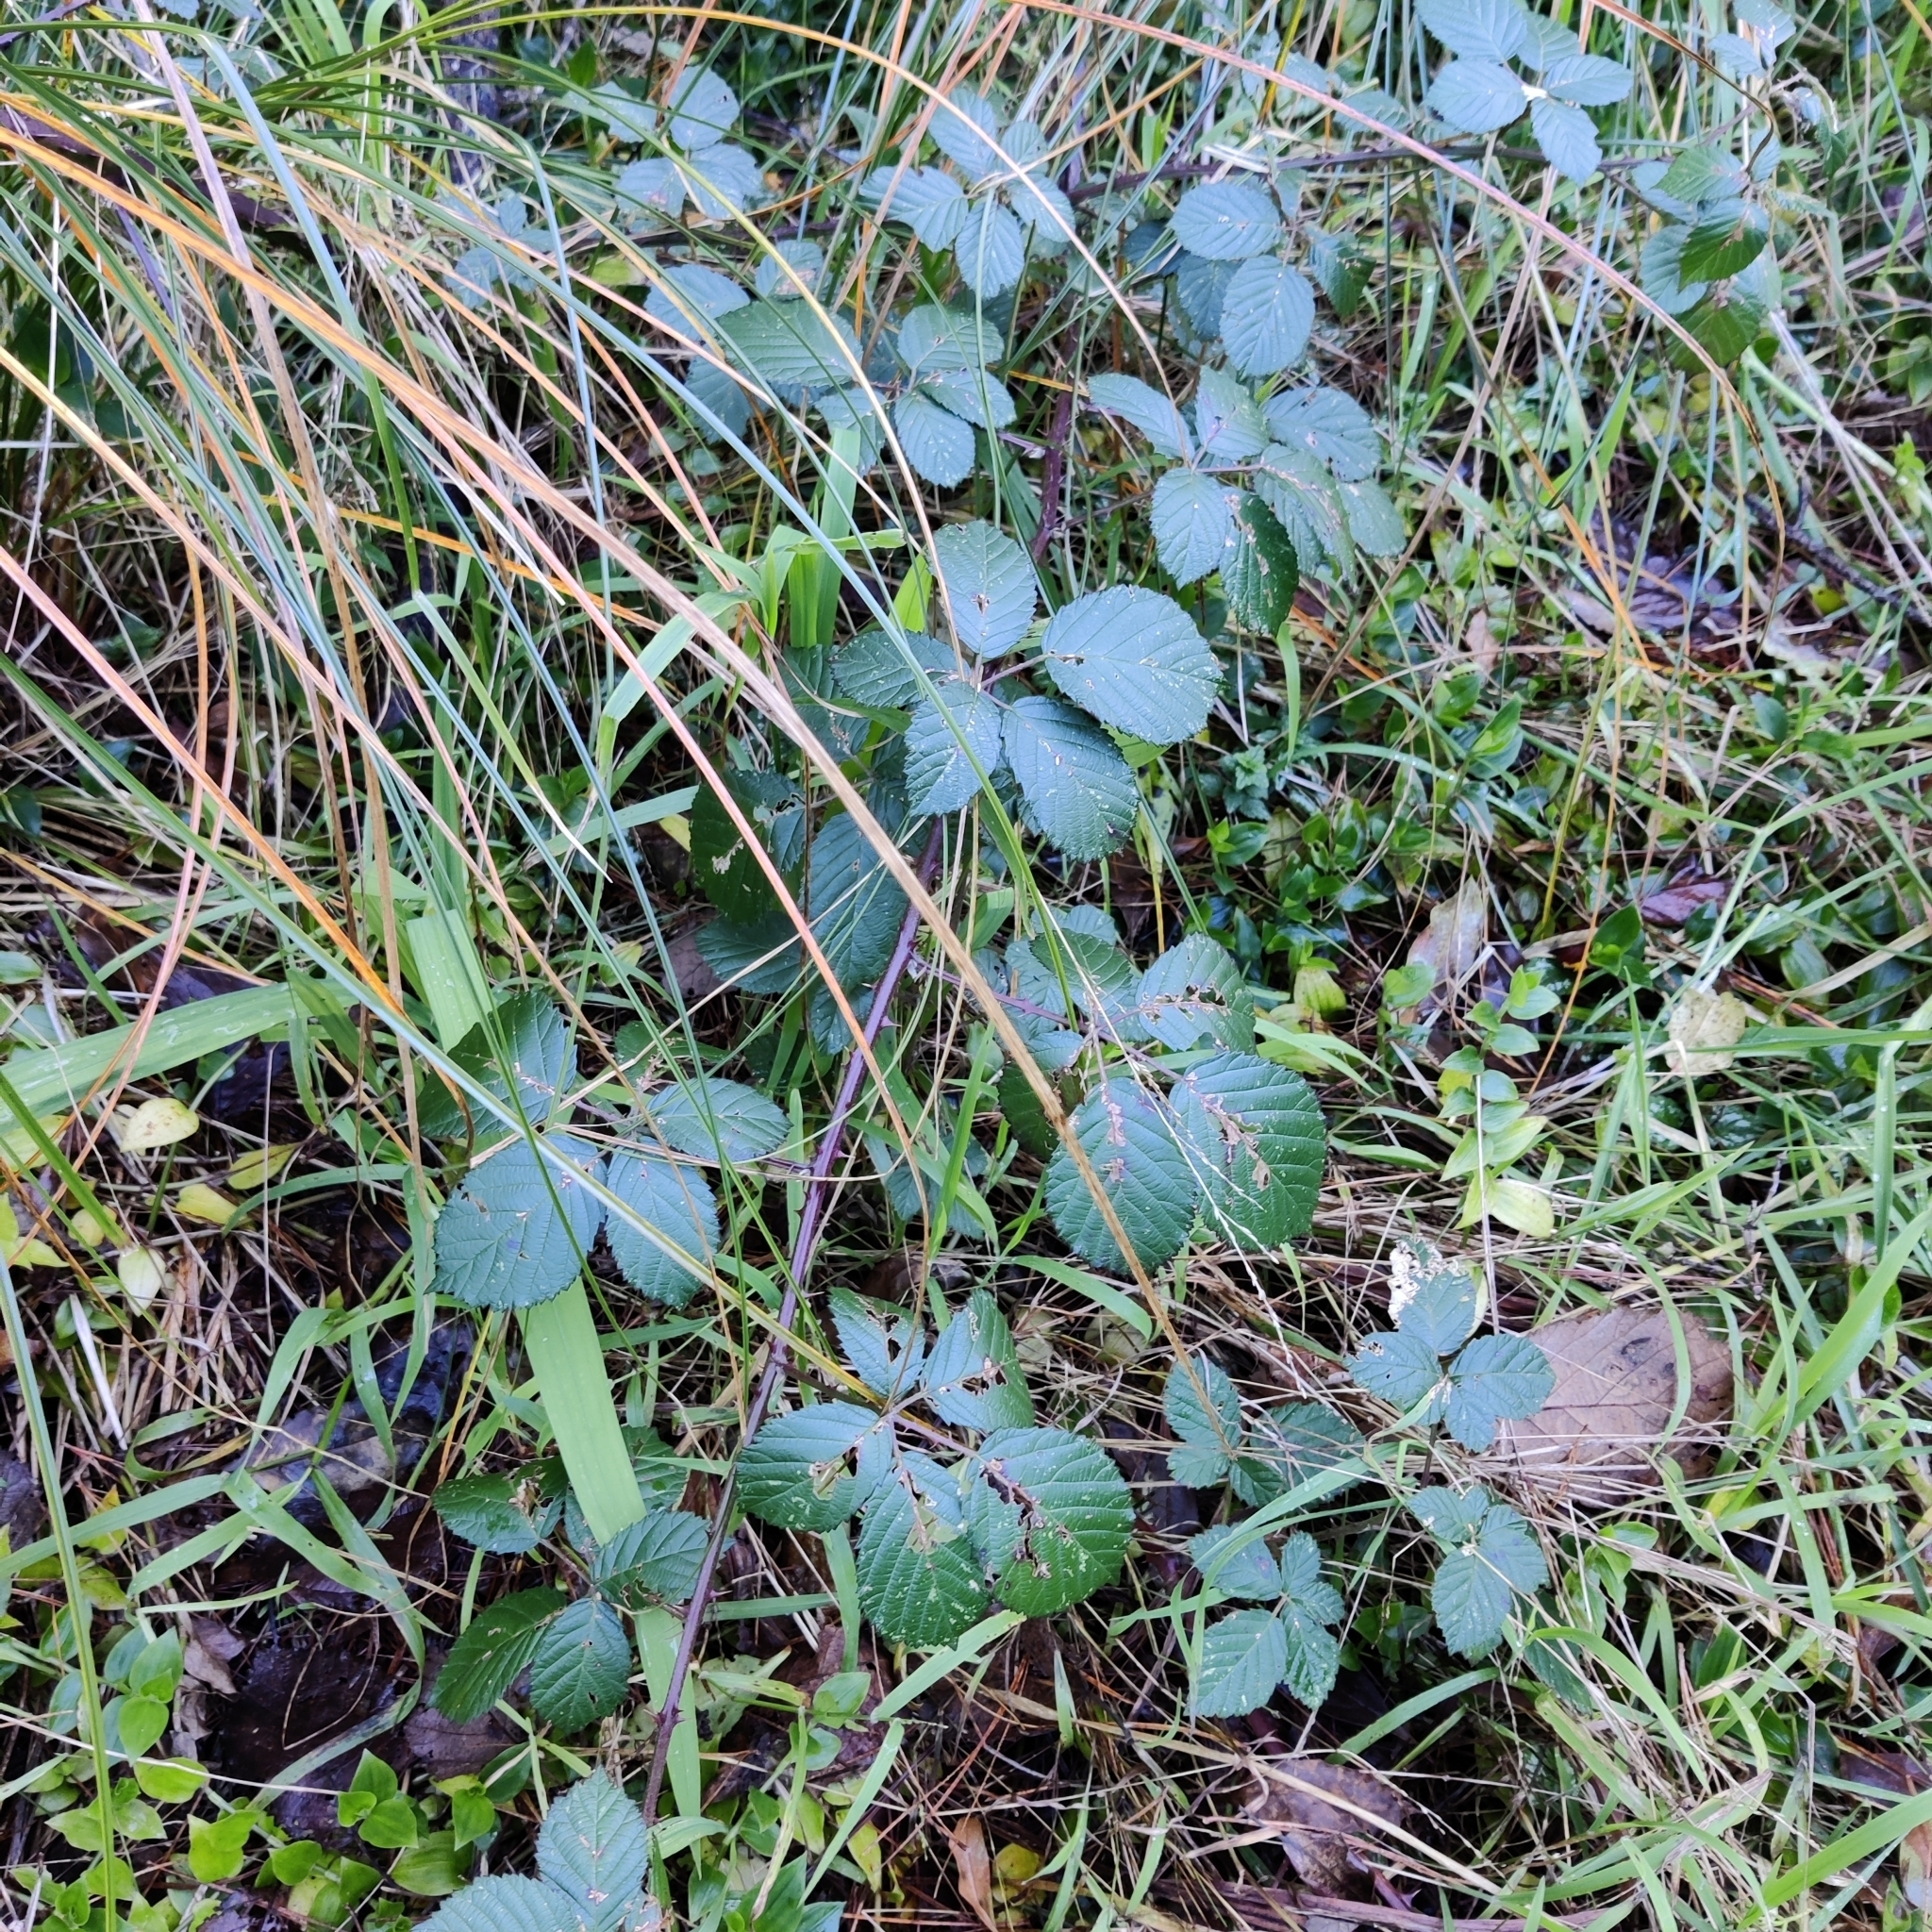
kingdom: Plantae
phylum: Tracheophyta
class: Liliopsida
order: Commelinales
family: Commelinaceae
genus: Tradescantia
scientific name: Tradescantia fluminensis
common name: Wandering-jew
